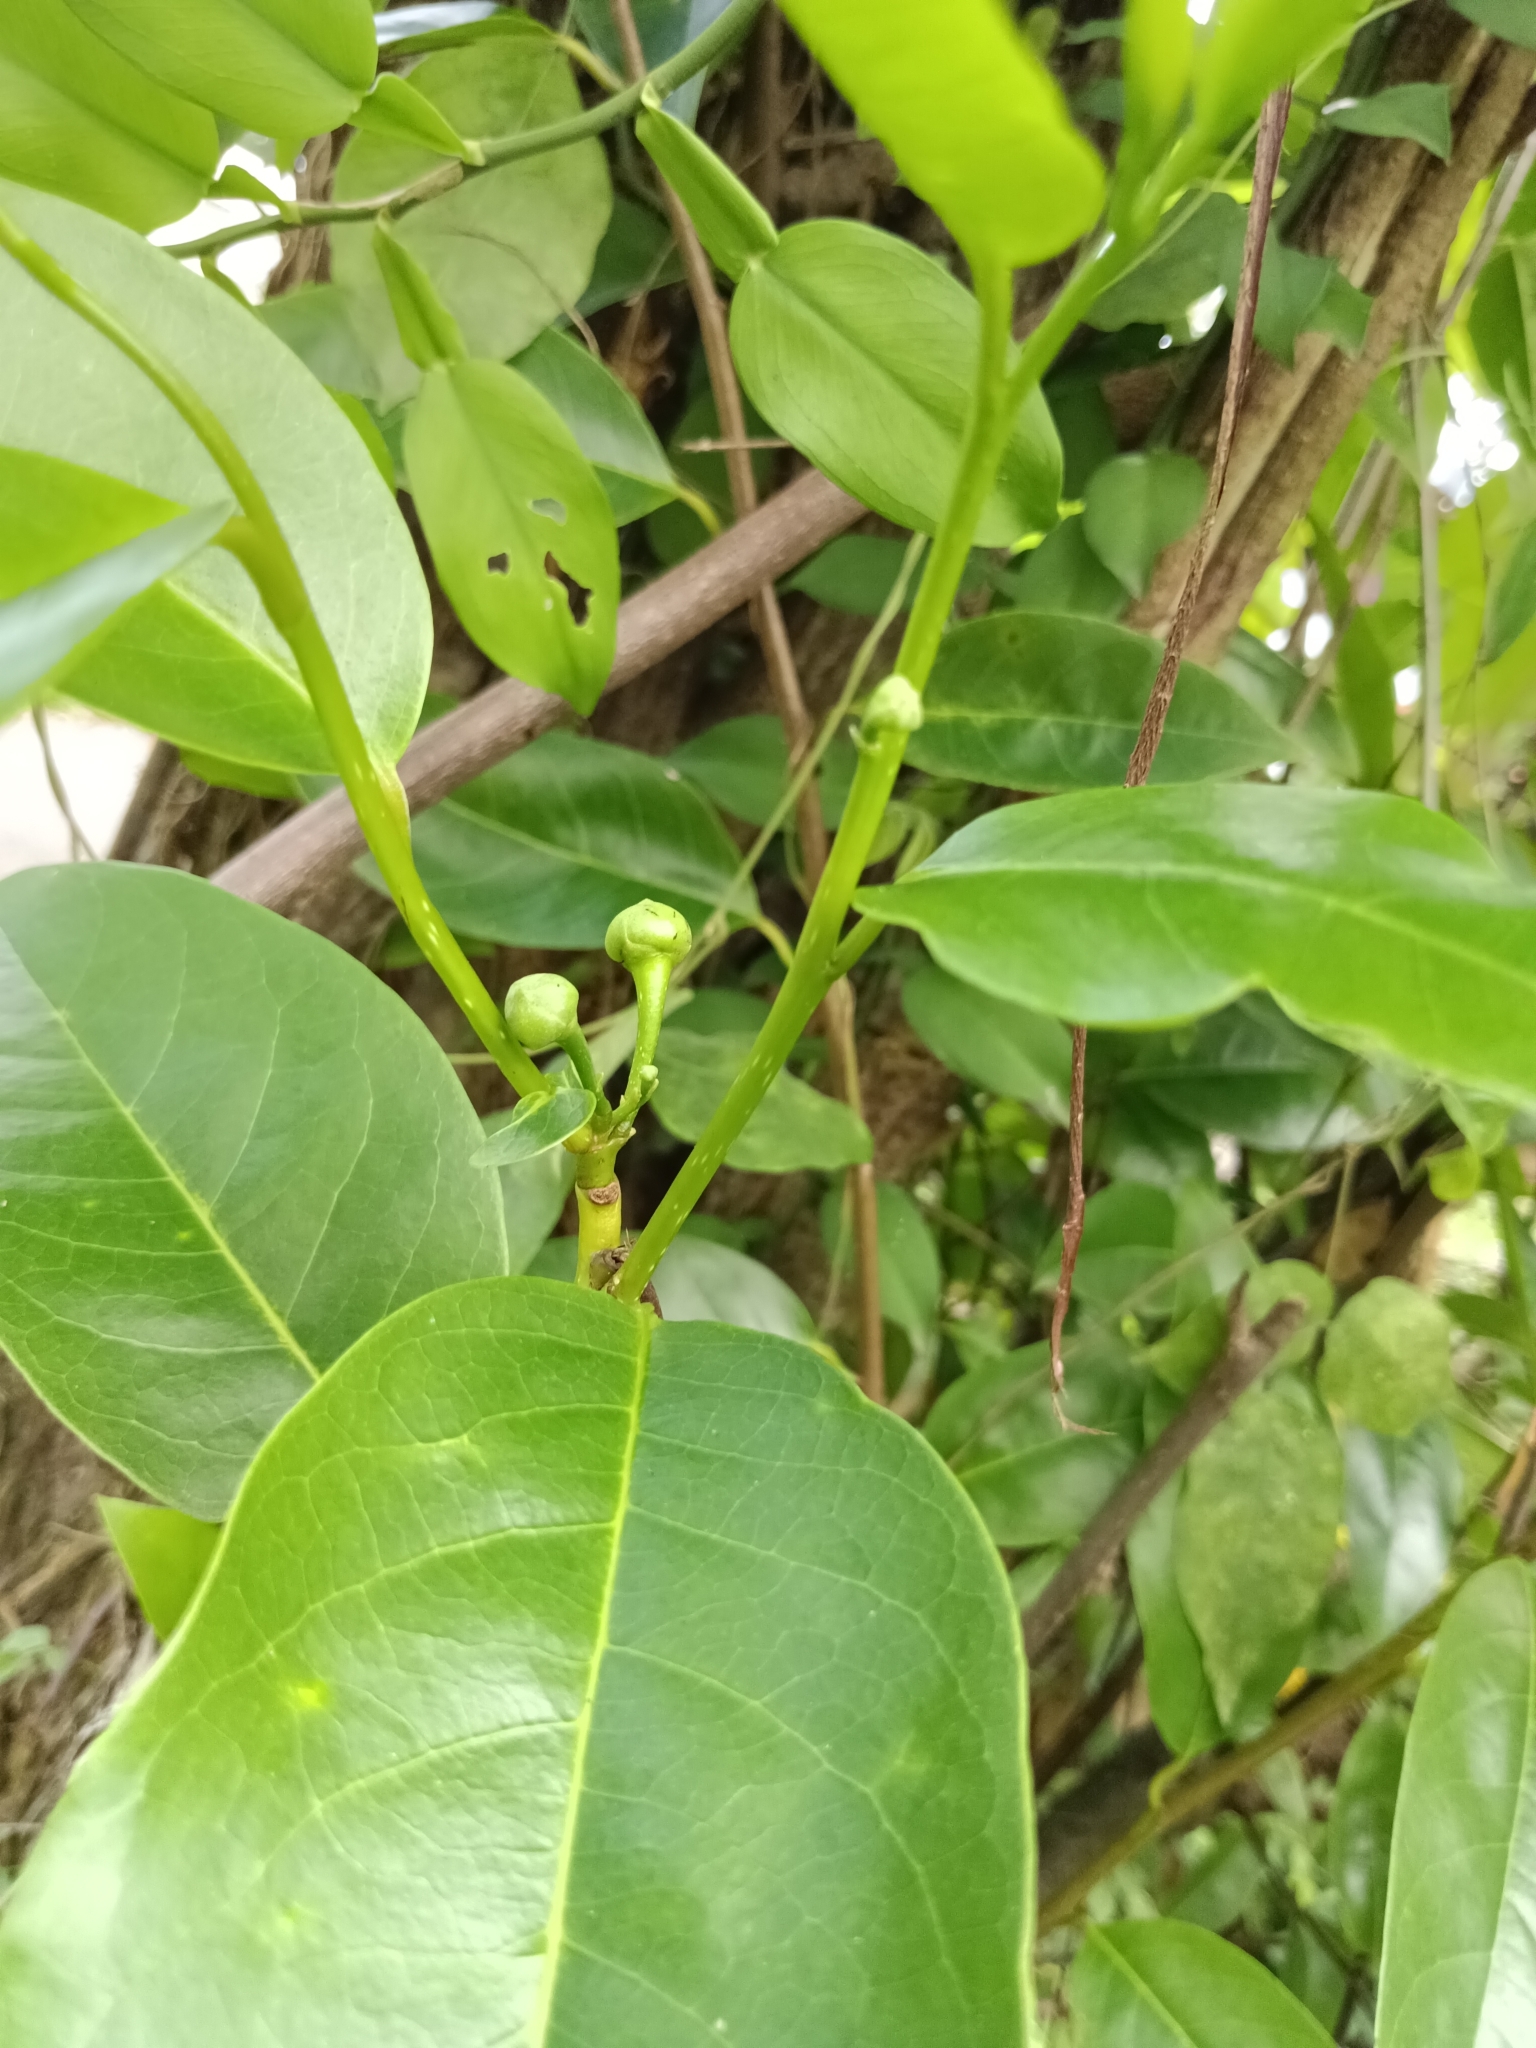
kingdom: Plantae
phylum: Tracheophyta
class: Magnoliopsida
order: Magnoliales
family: Annonaceae
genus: Annona
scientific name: Annona glabra
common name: Monkey apple
